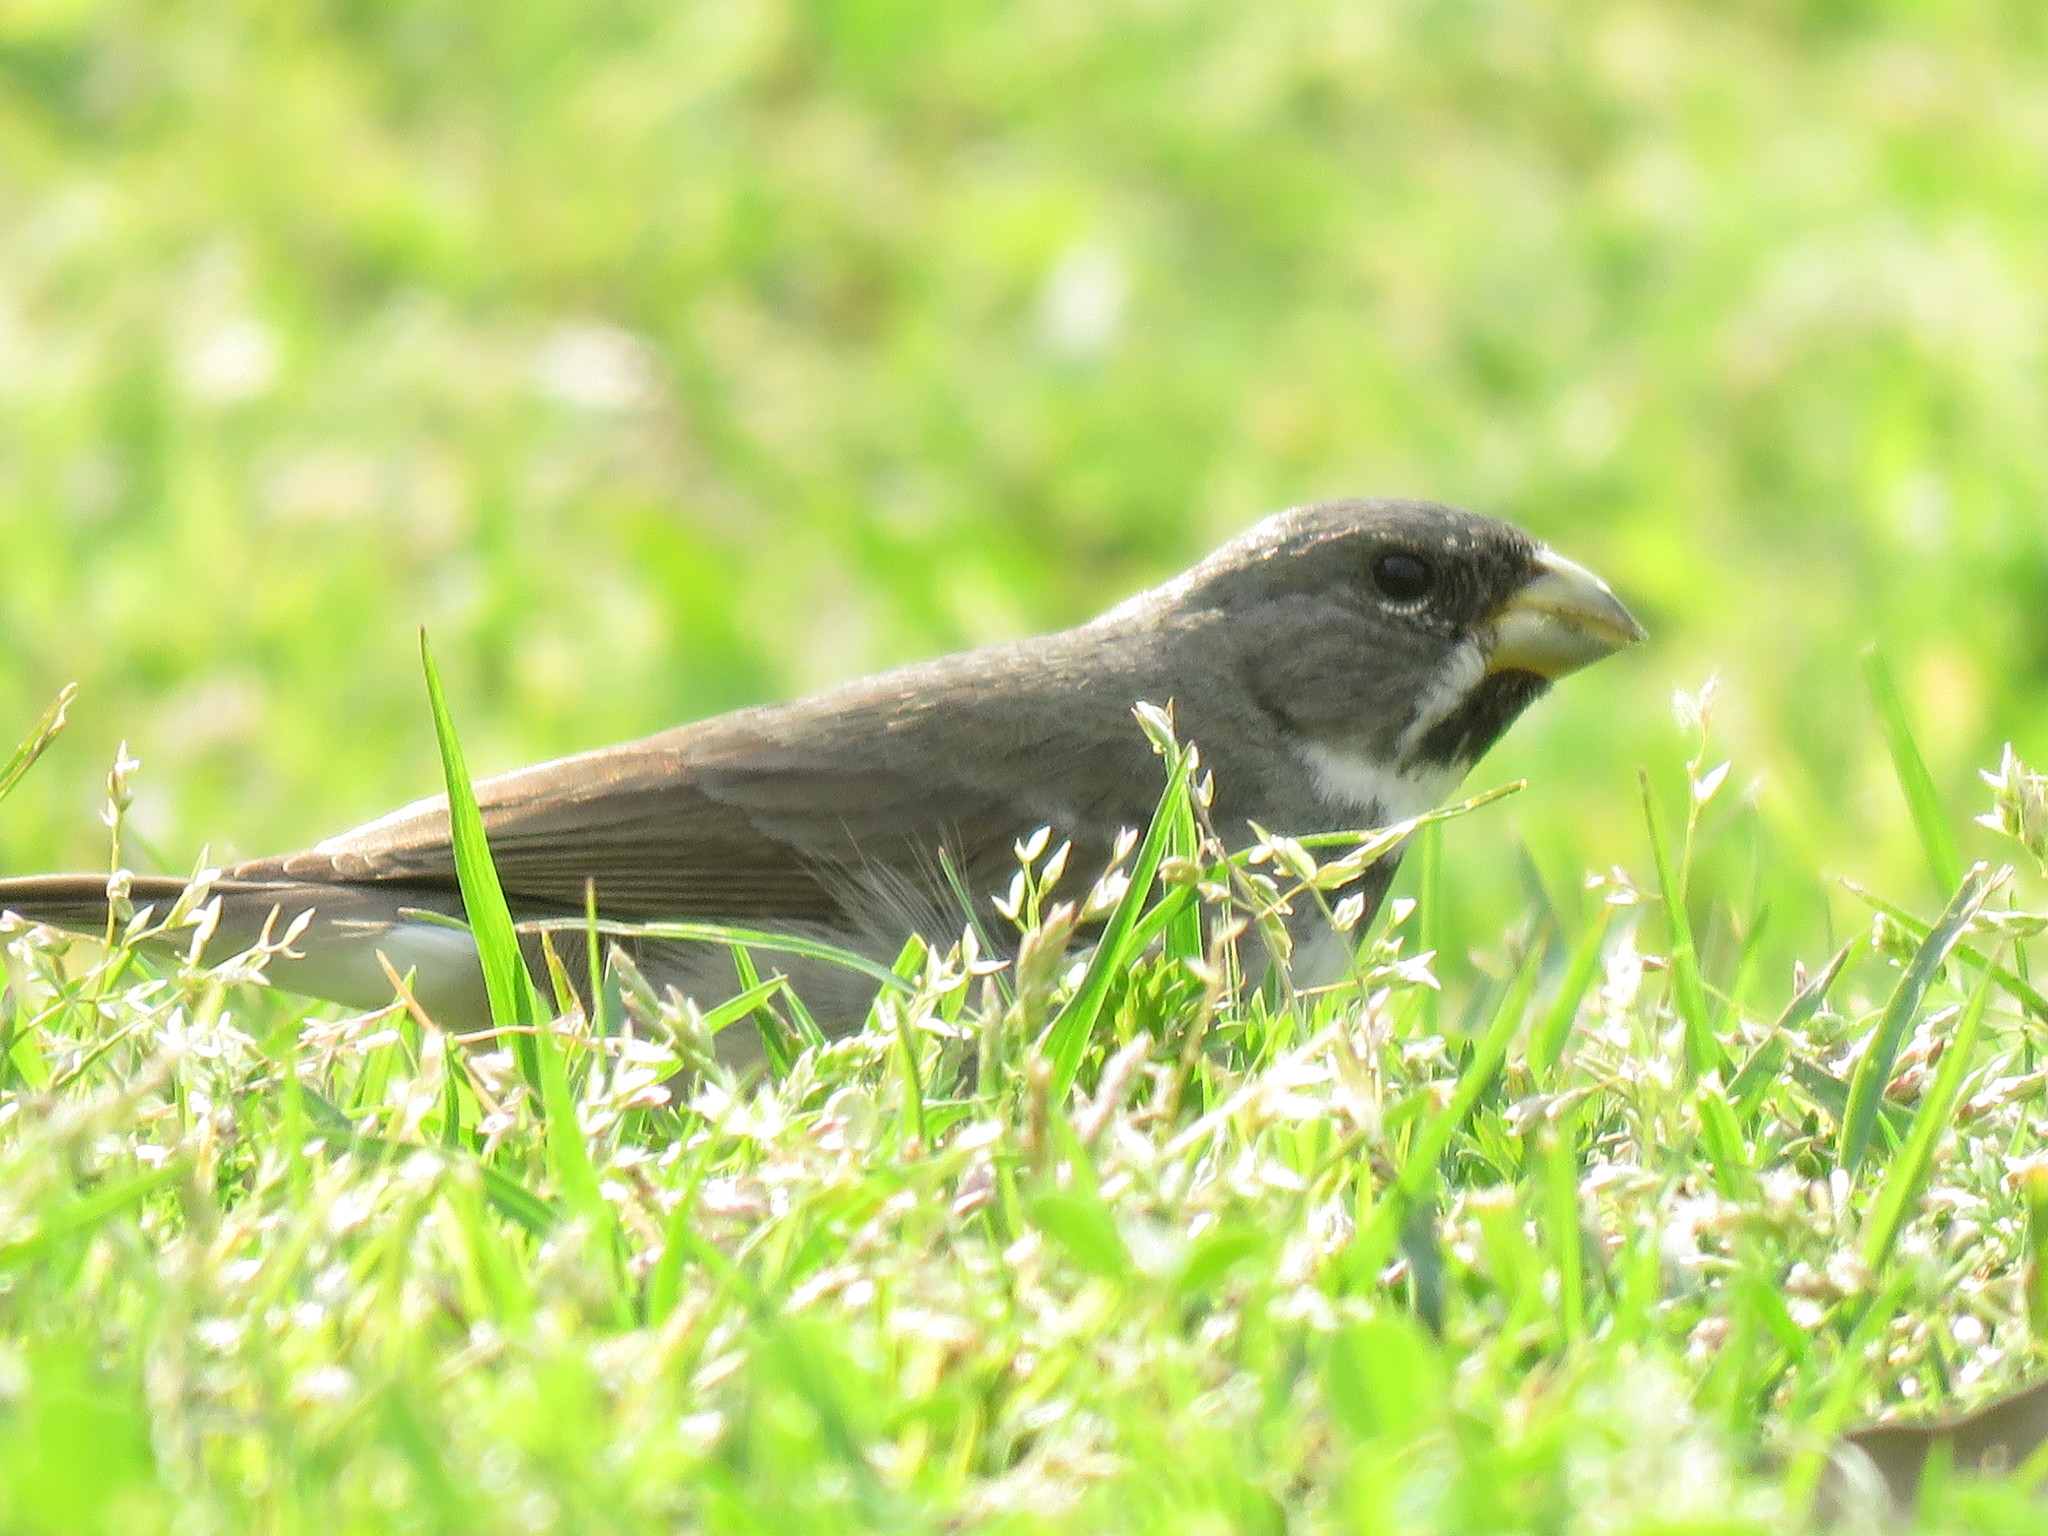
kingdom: Animalia
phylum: Chordata
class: Aves
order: Passeriformes
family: Thraupidae
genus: Sporophila
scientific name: Sporophila caerulescens
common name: Double-collared seedeater
